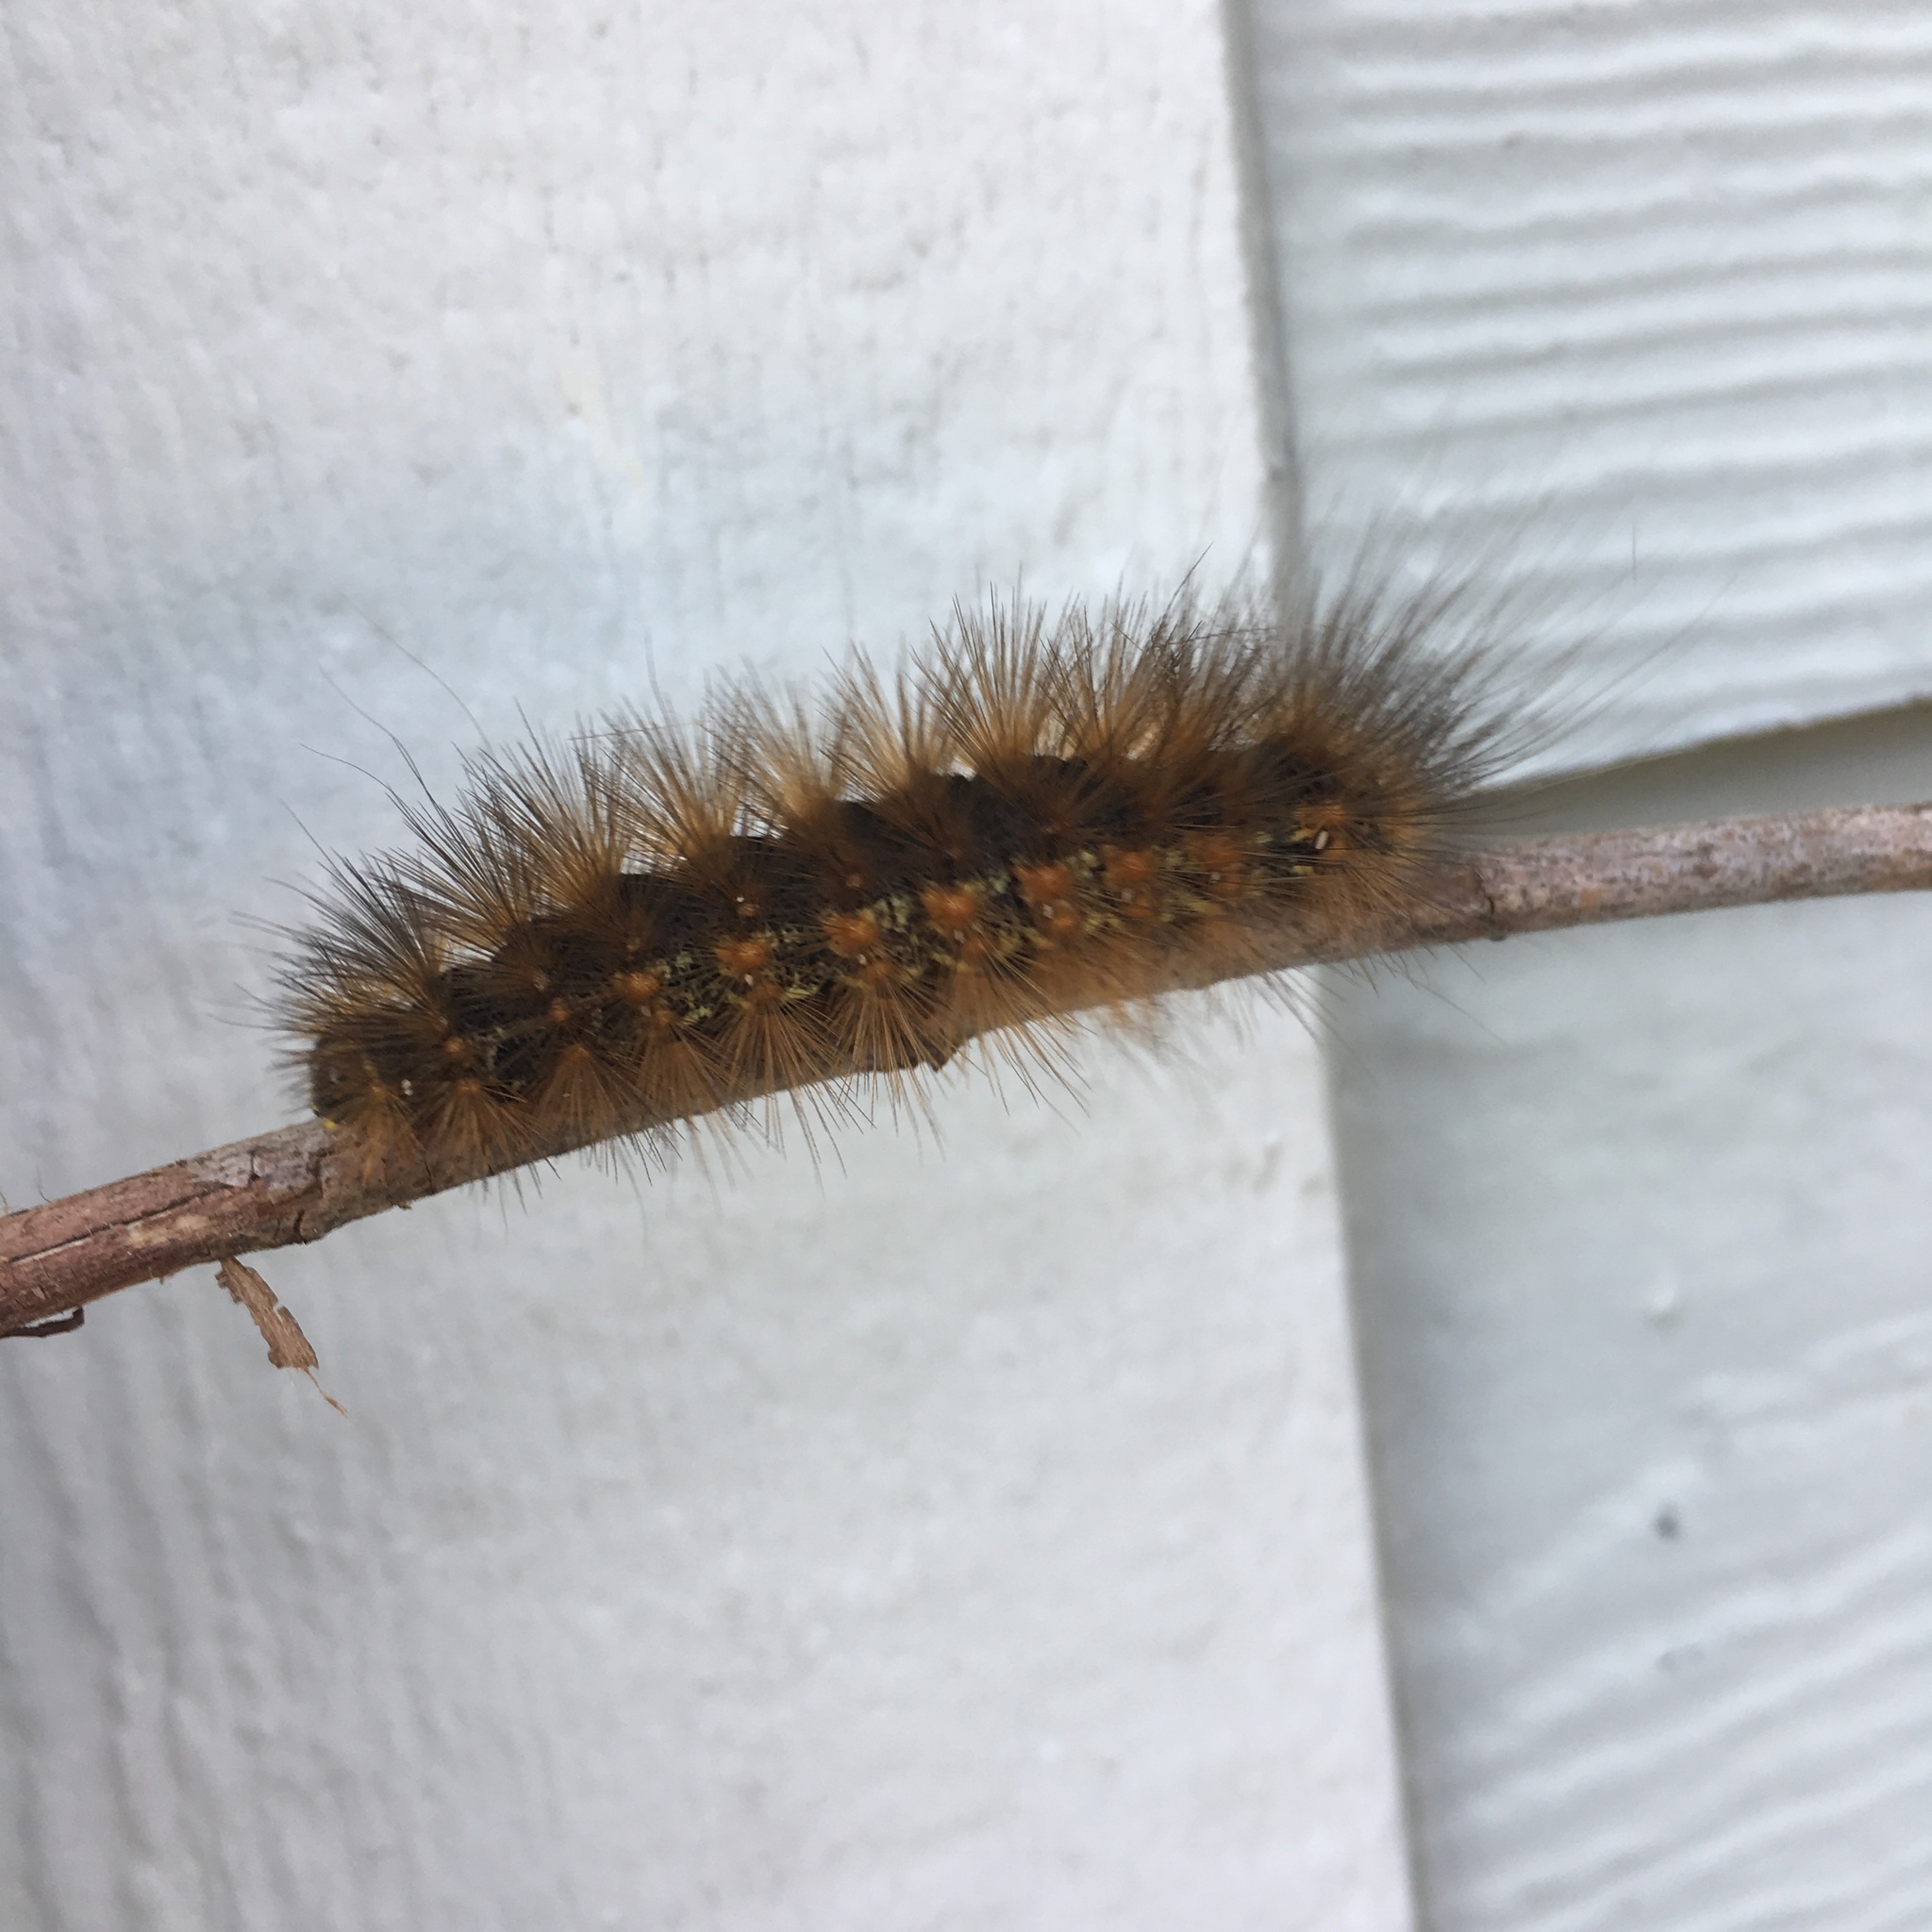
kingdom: Animalia
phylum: Arthropoda
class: Insecta
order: Lepidoptera
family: Erebidae
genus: Estigmene
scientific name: Estigmene acrea
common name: Salt marsh moth
